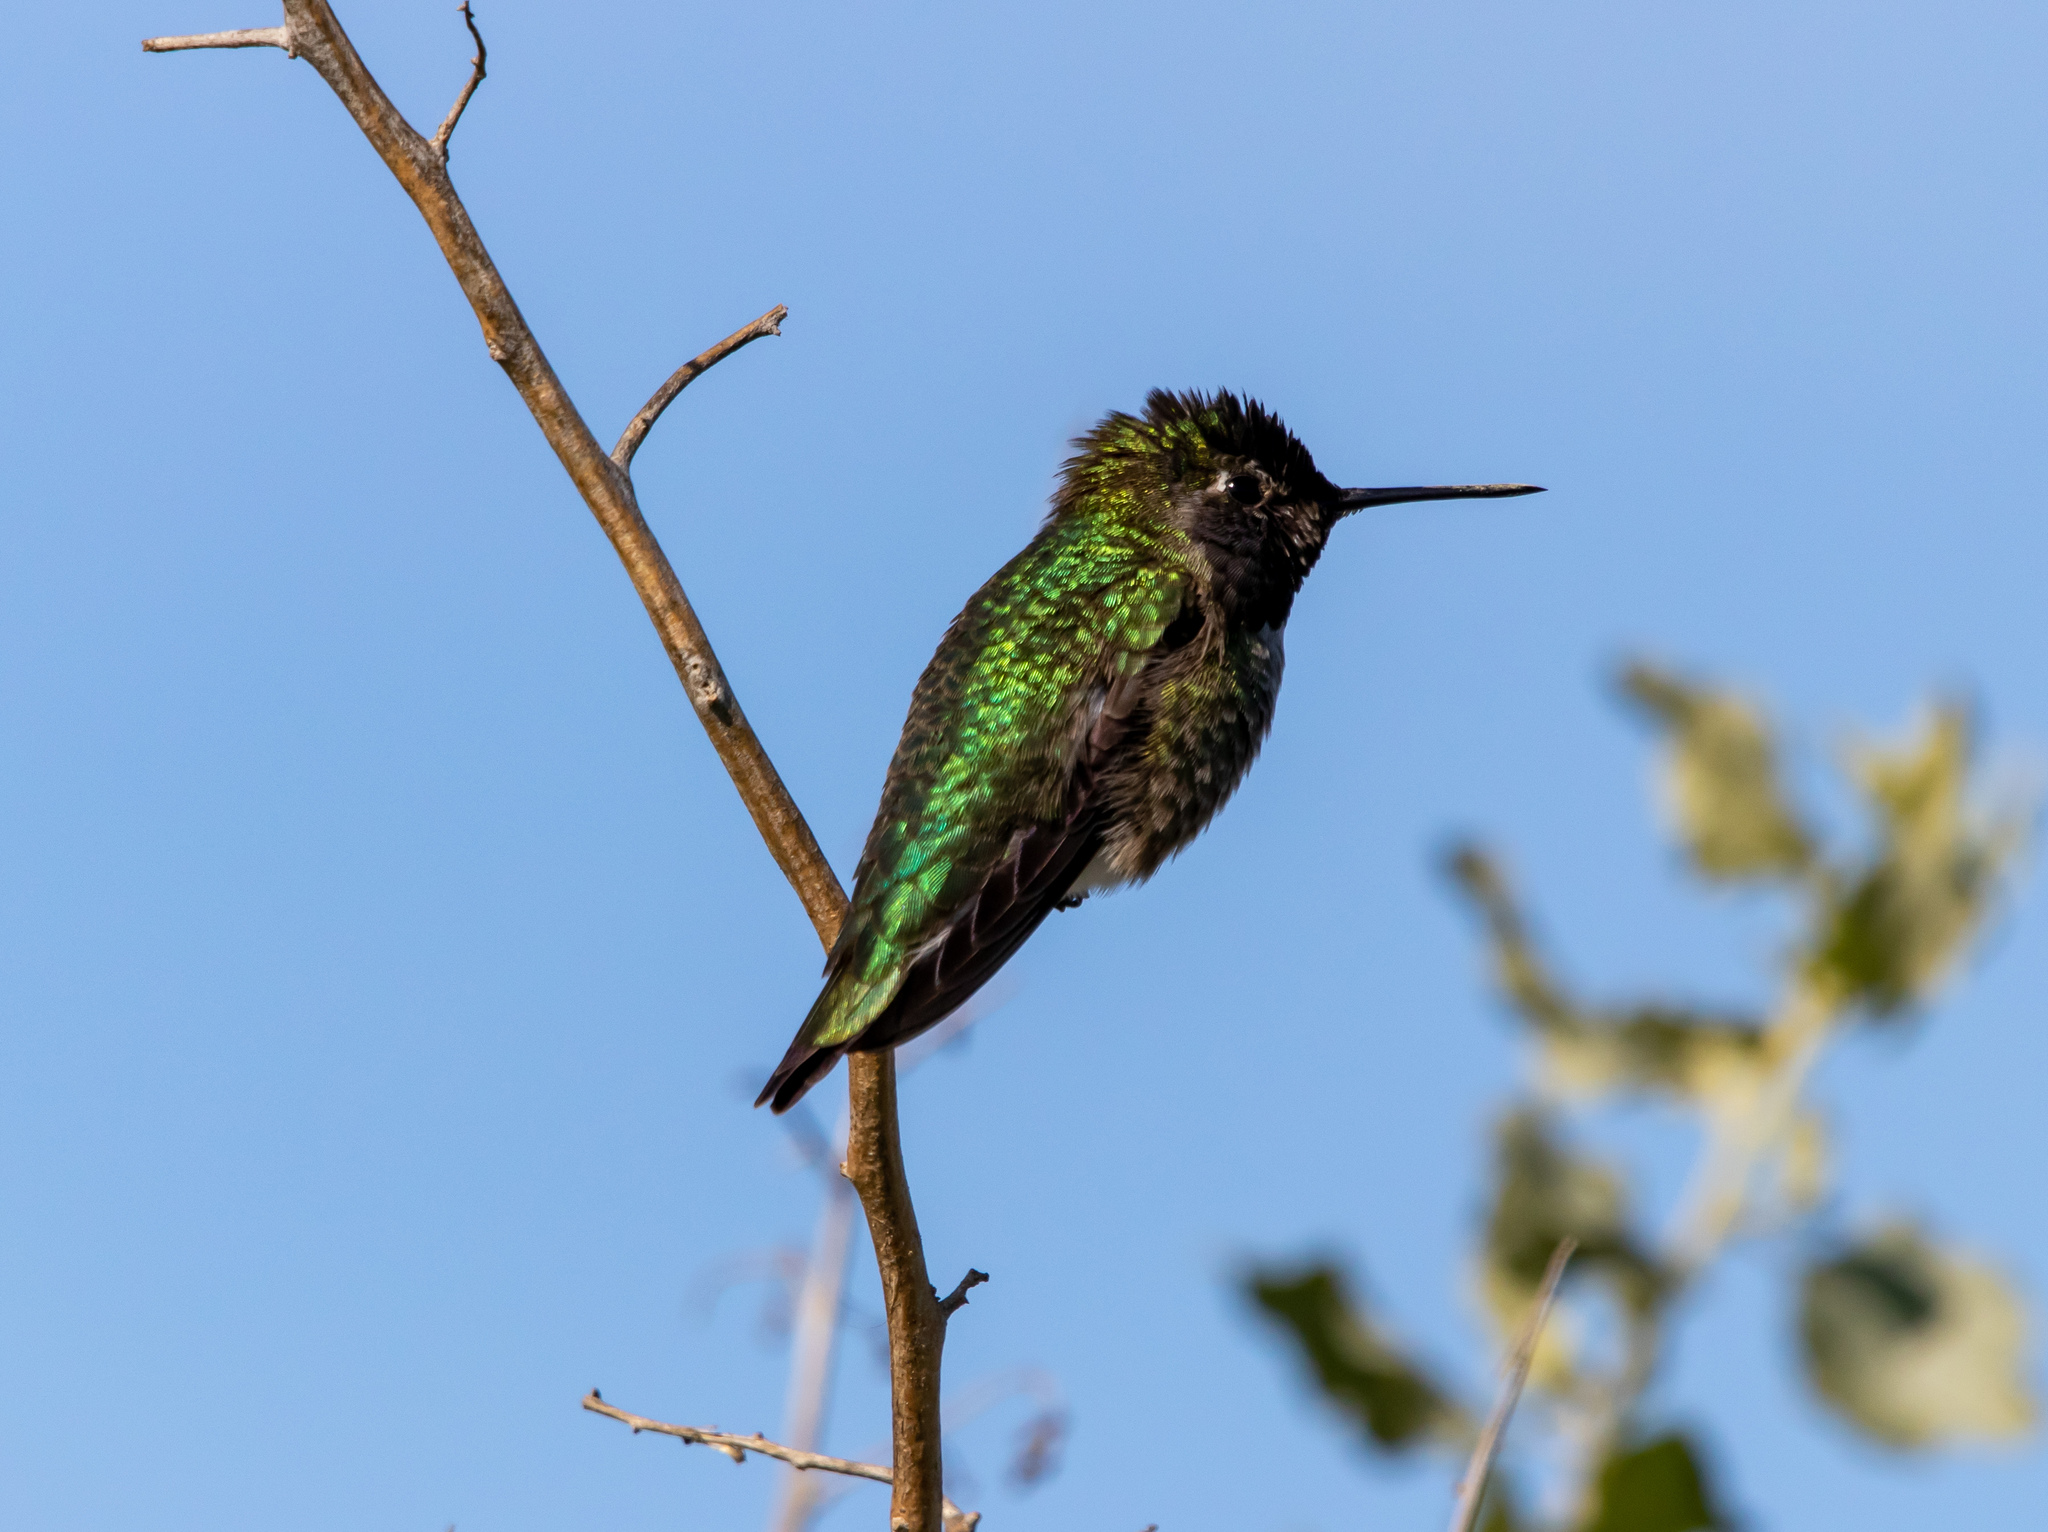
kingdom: Animalia
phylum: Chordata
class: Aves
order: Apodiformes
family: Trochilidae
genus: Calypte
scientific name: Calypte anna
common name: Anna's hummingbird
